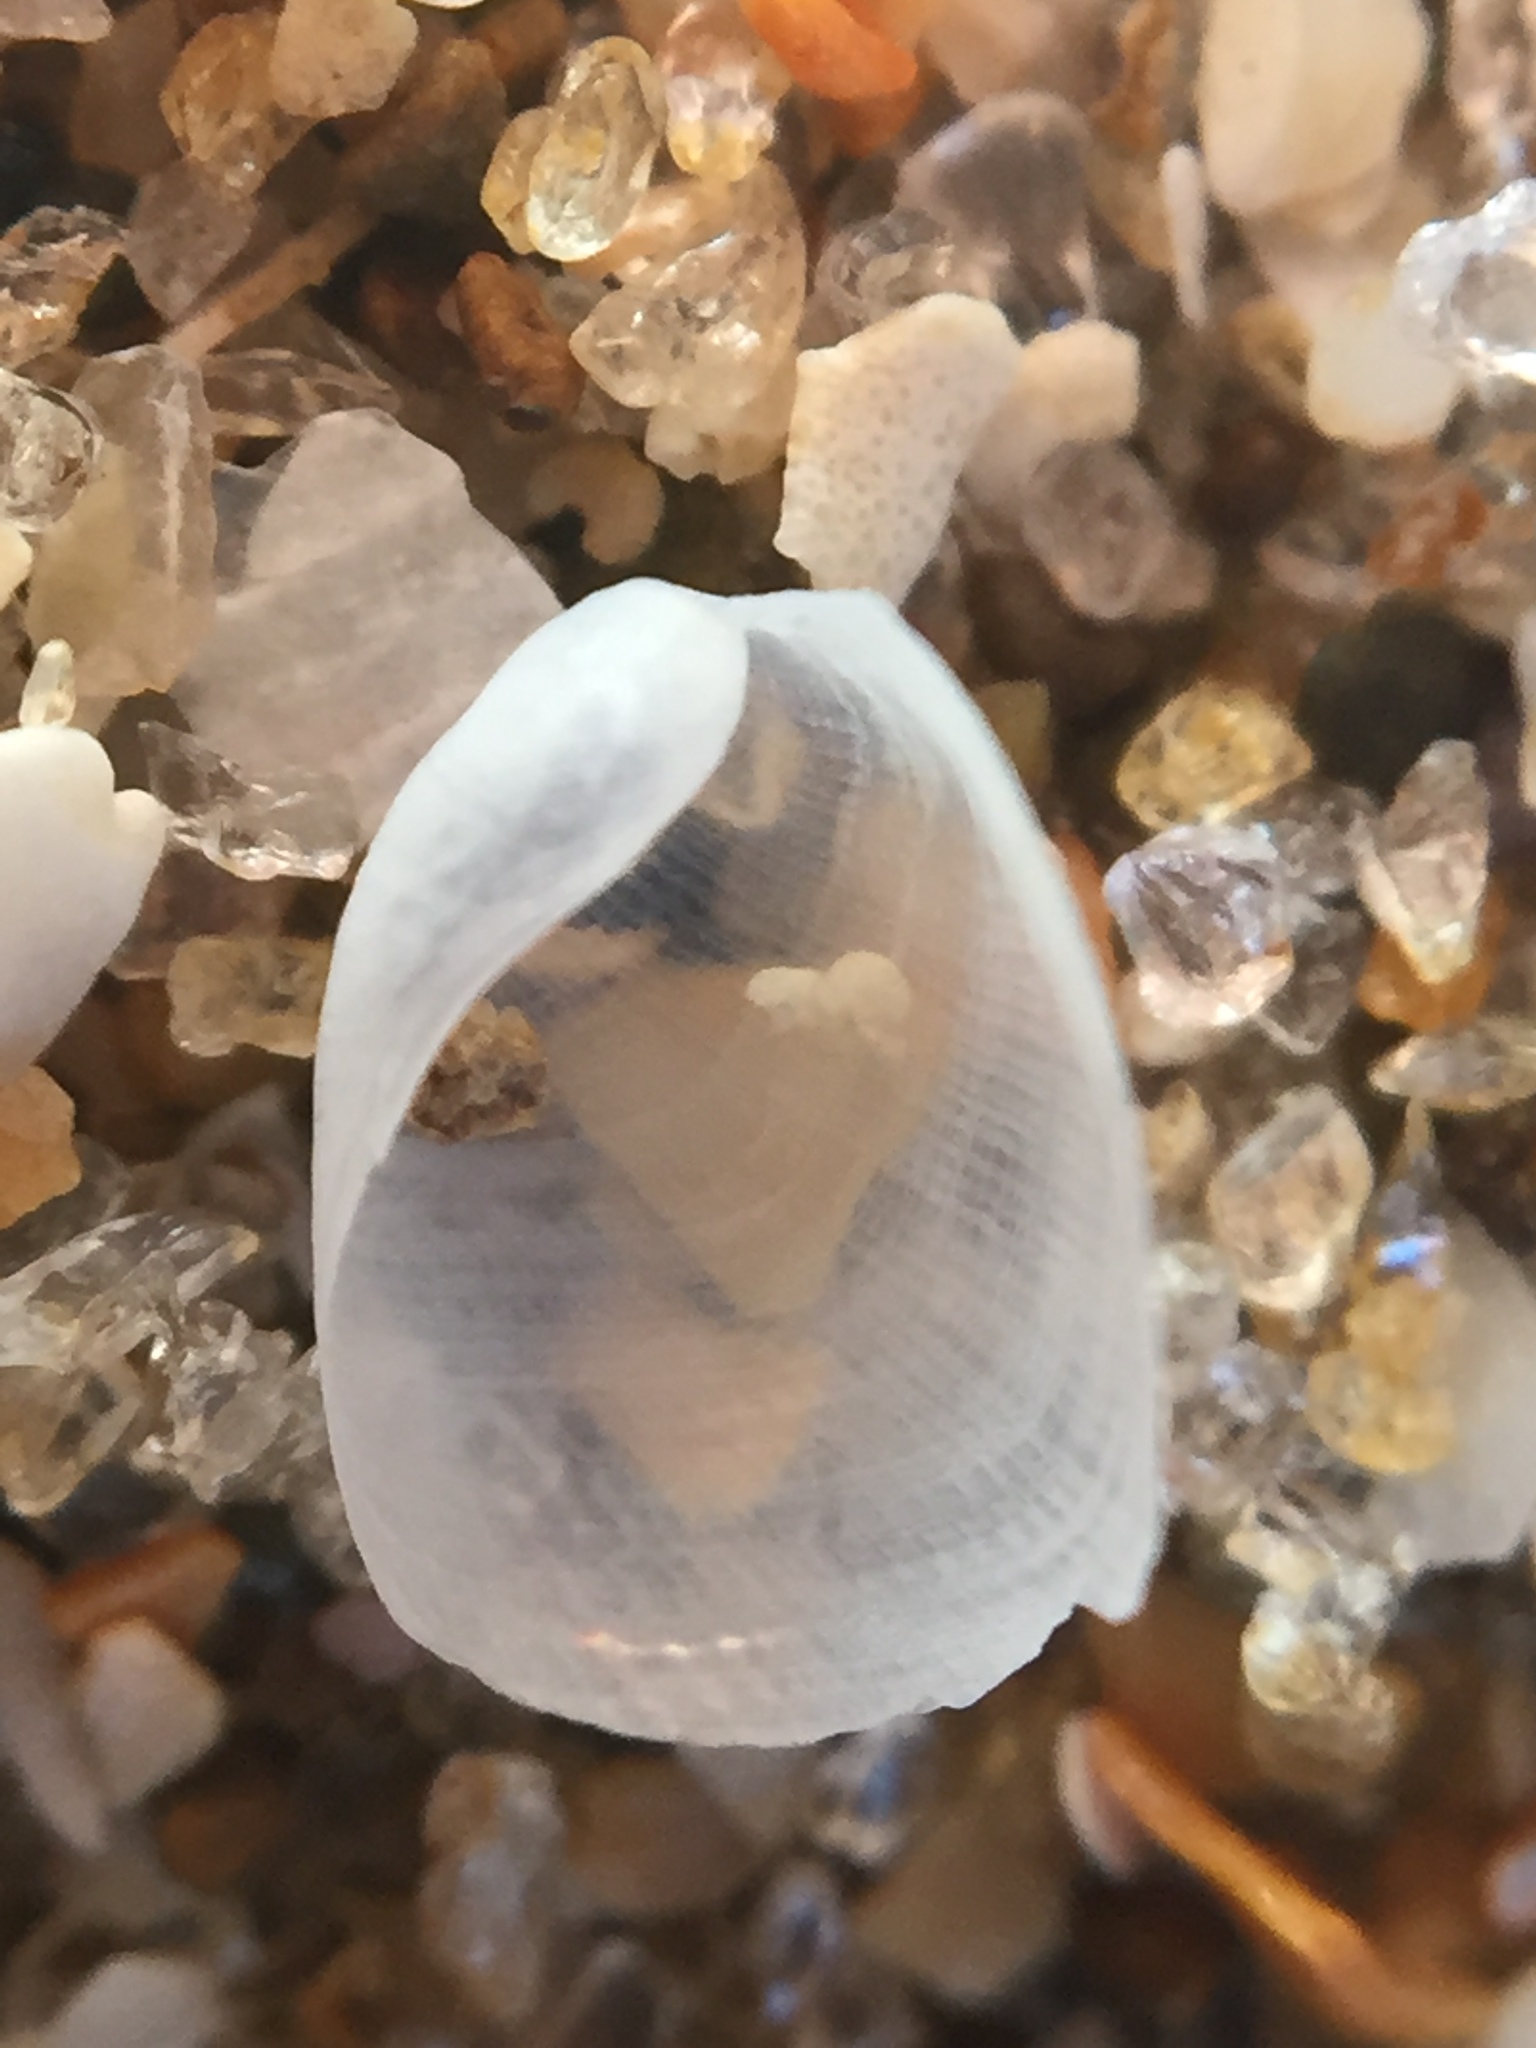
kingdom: Animalia
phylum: Mollusca
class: Gastropoda
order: Cephalaspidea
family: Philinidae
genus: Philine
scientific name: Philine auriformis
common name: Sea snail
